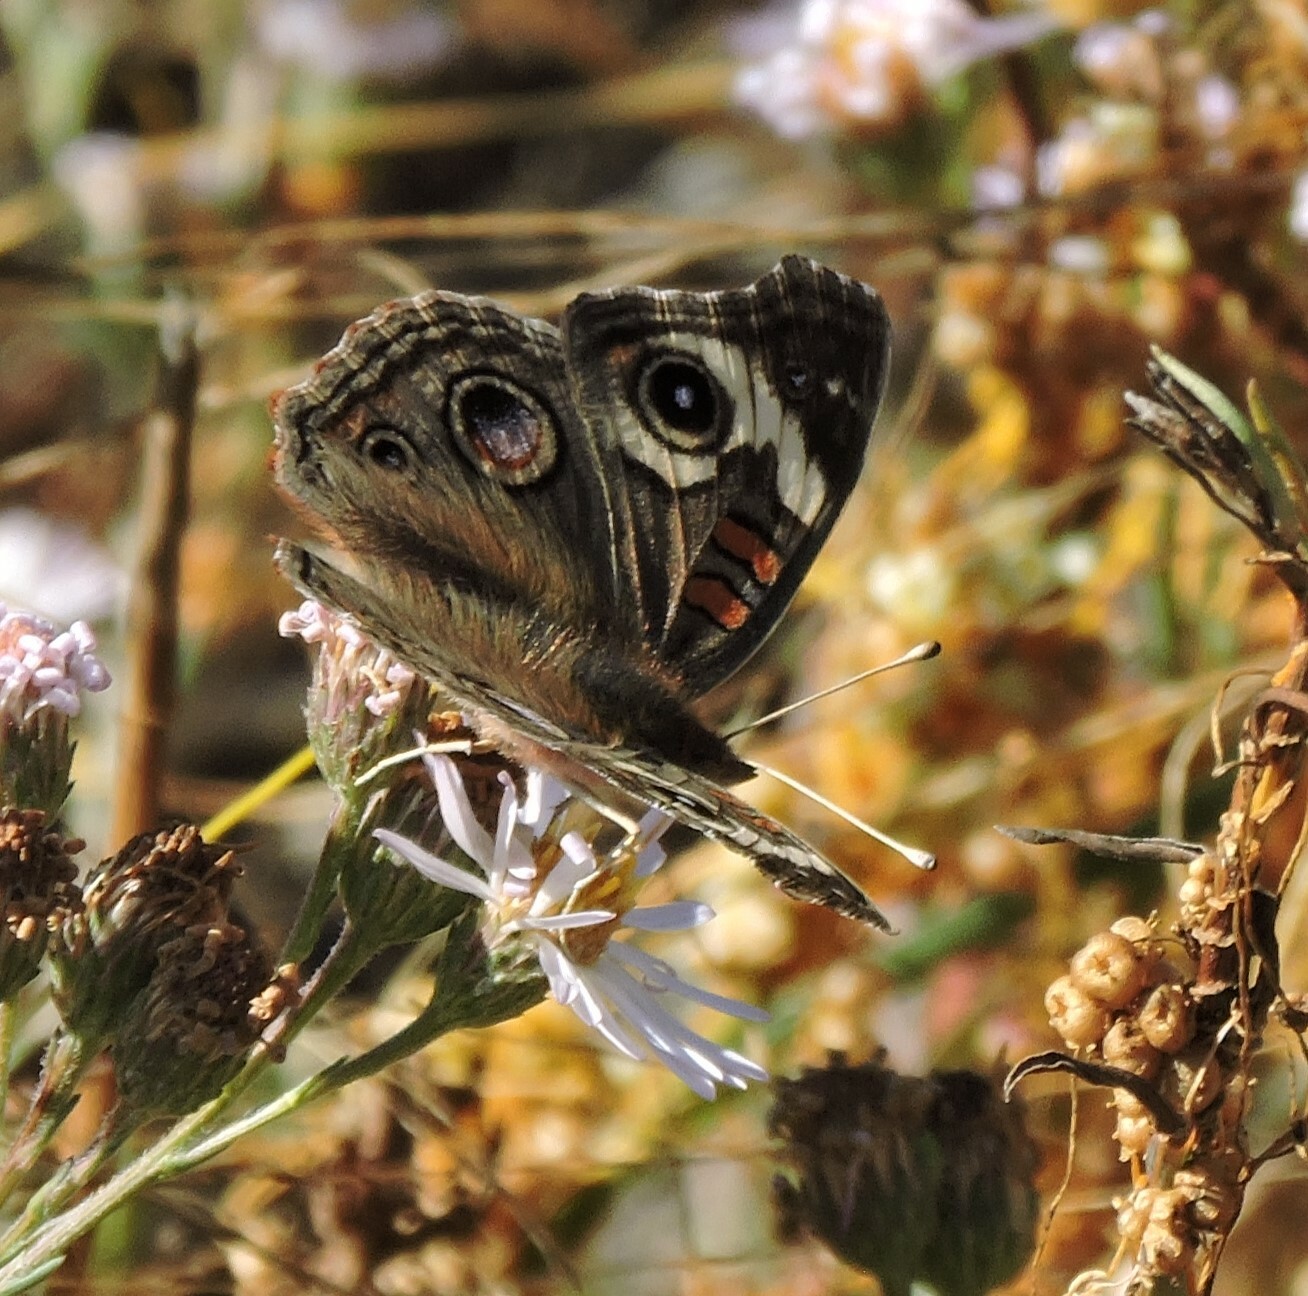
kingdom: Animalia
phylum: Arthropoda
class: Insecta
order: Lepidoptera
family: Nymphalidae
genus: Junonia
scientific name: Junonia grisea
